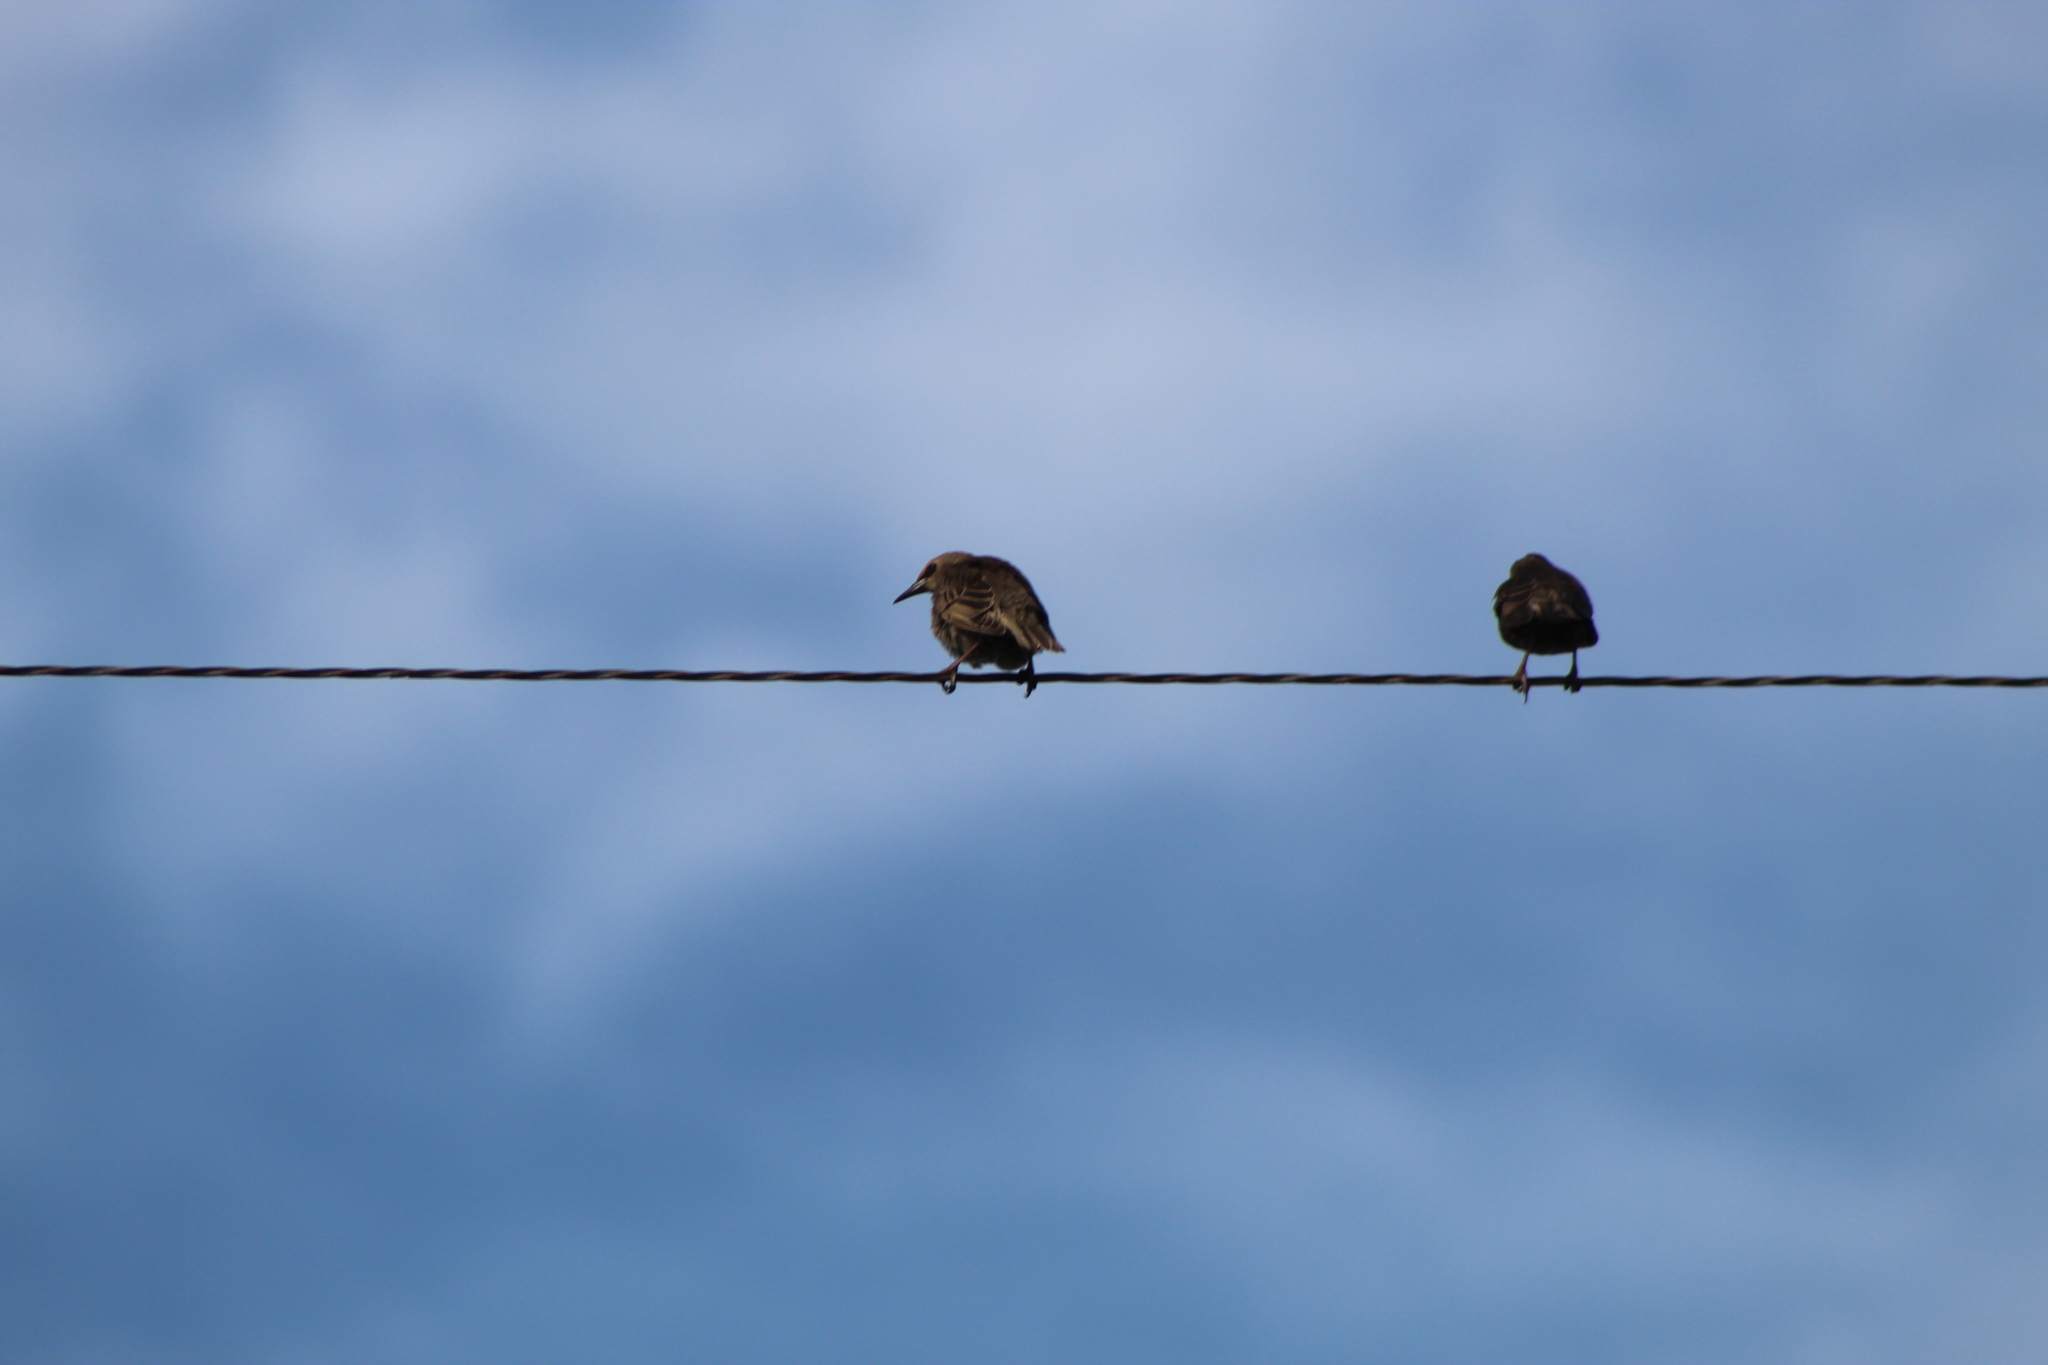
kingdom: Animalia
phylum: Chordata
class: Aves
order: Passeriformes
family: Sturnidae
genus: Sturnus
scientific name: Sturnus vulgaris
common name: Common starling
